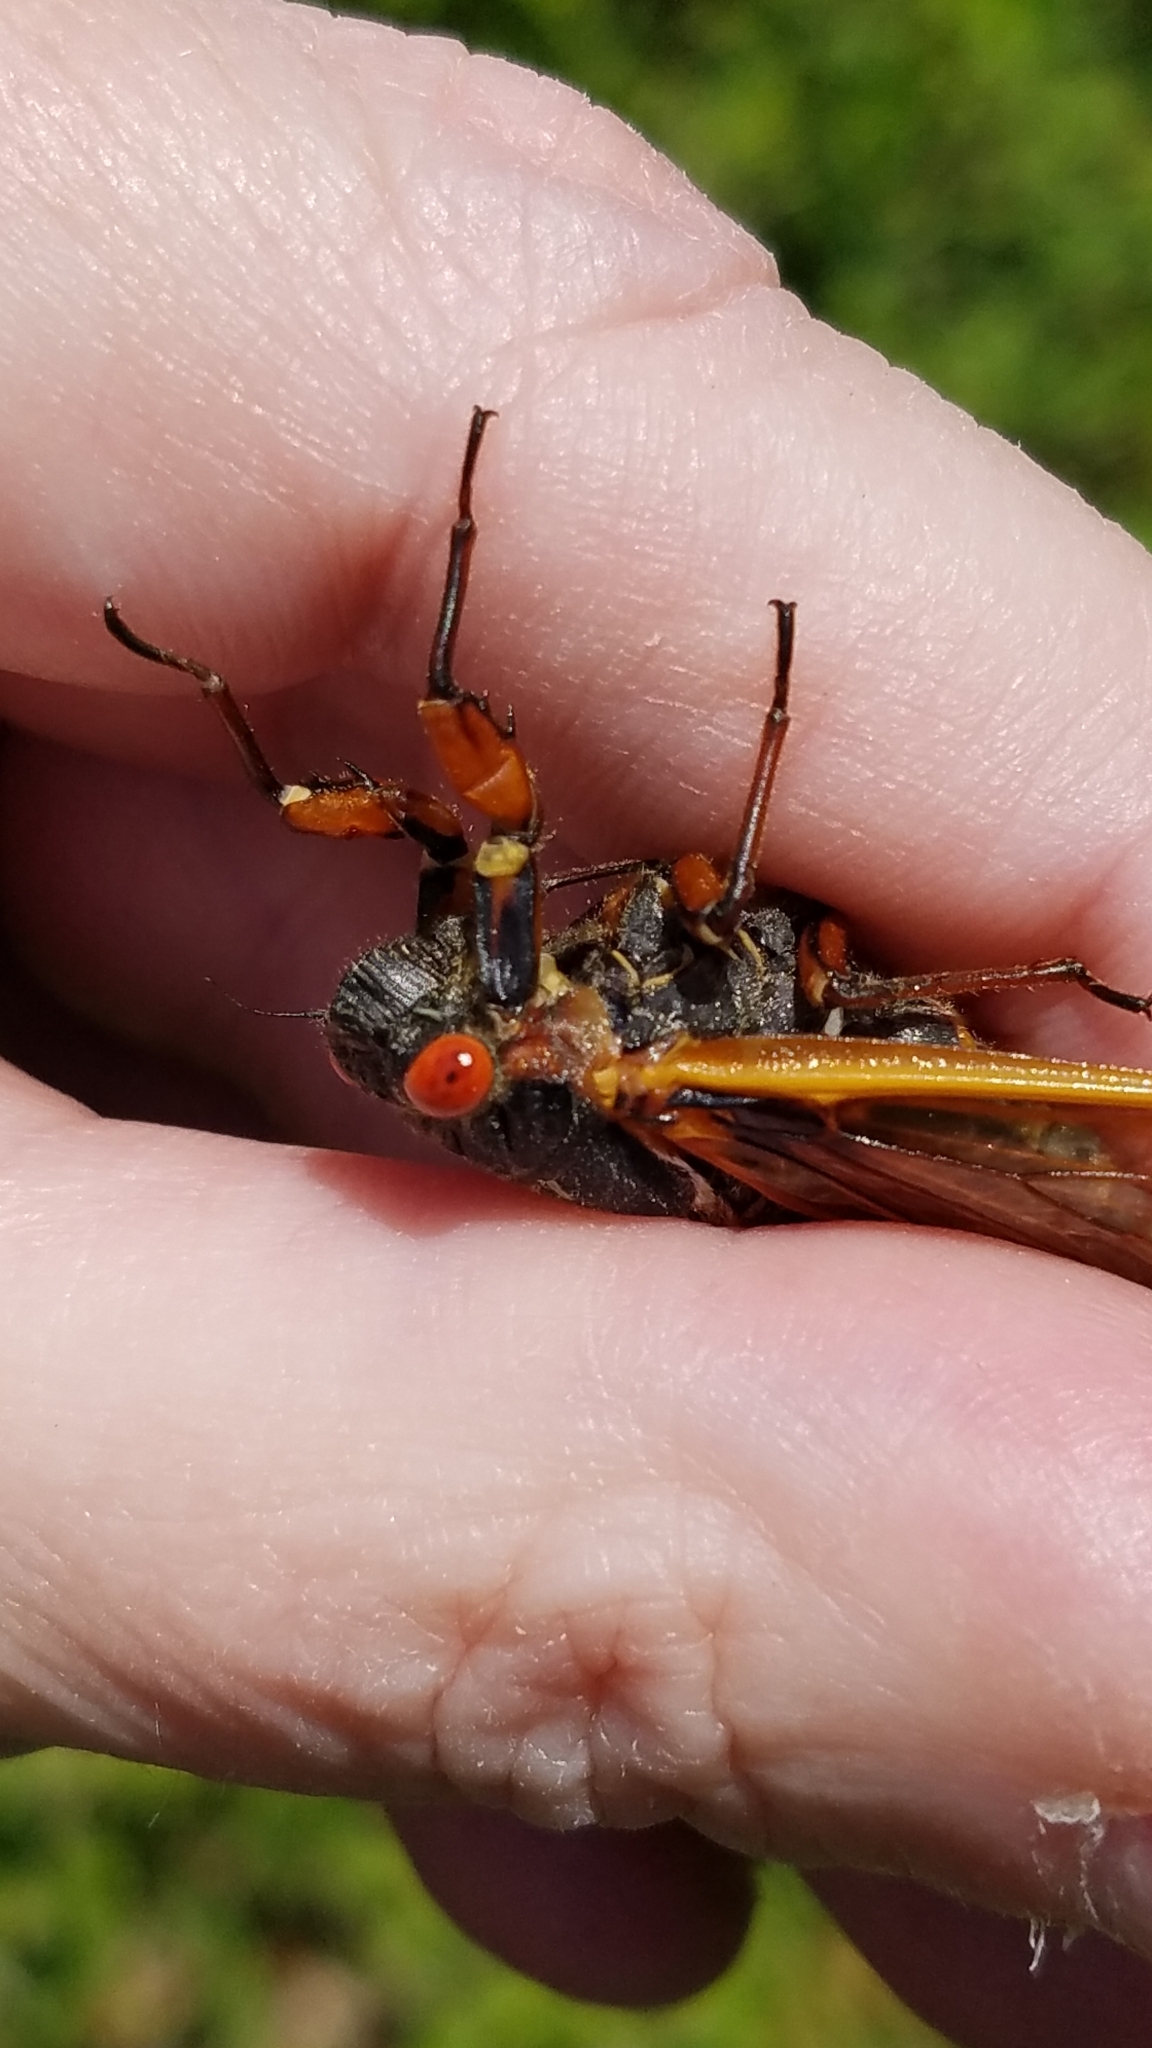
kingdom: Animalia
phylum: Arthropoda
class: Insecta
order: Hemiptera
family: Cicadidae
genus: Magicicada
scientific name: Magicicada septendecim
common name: Periodical cicada
